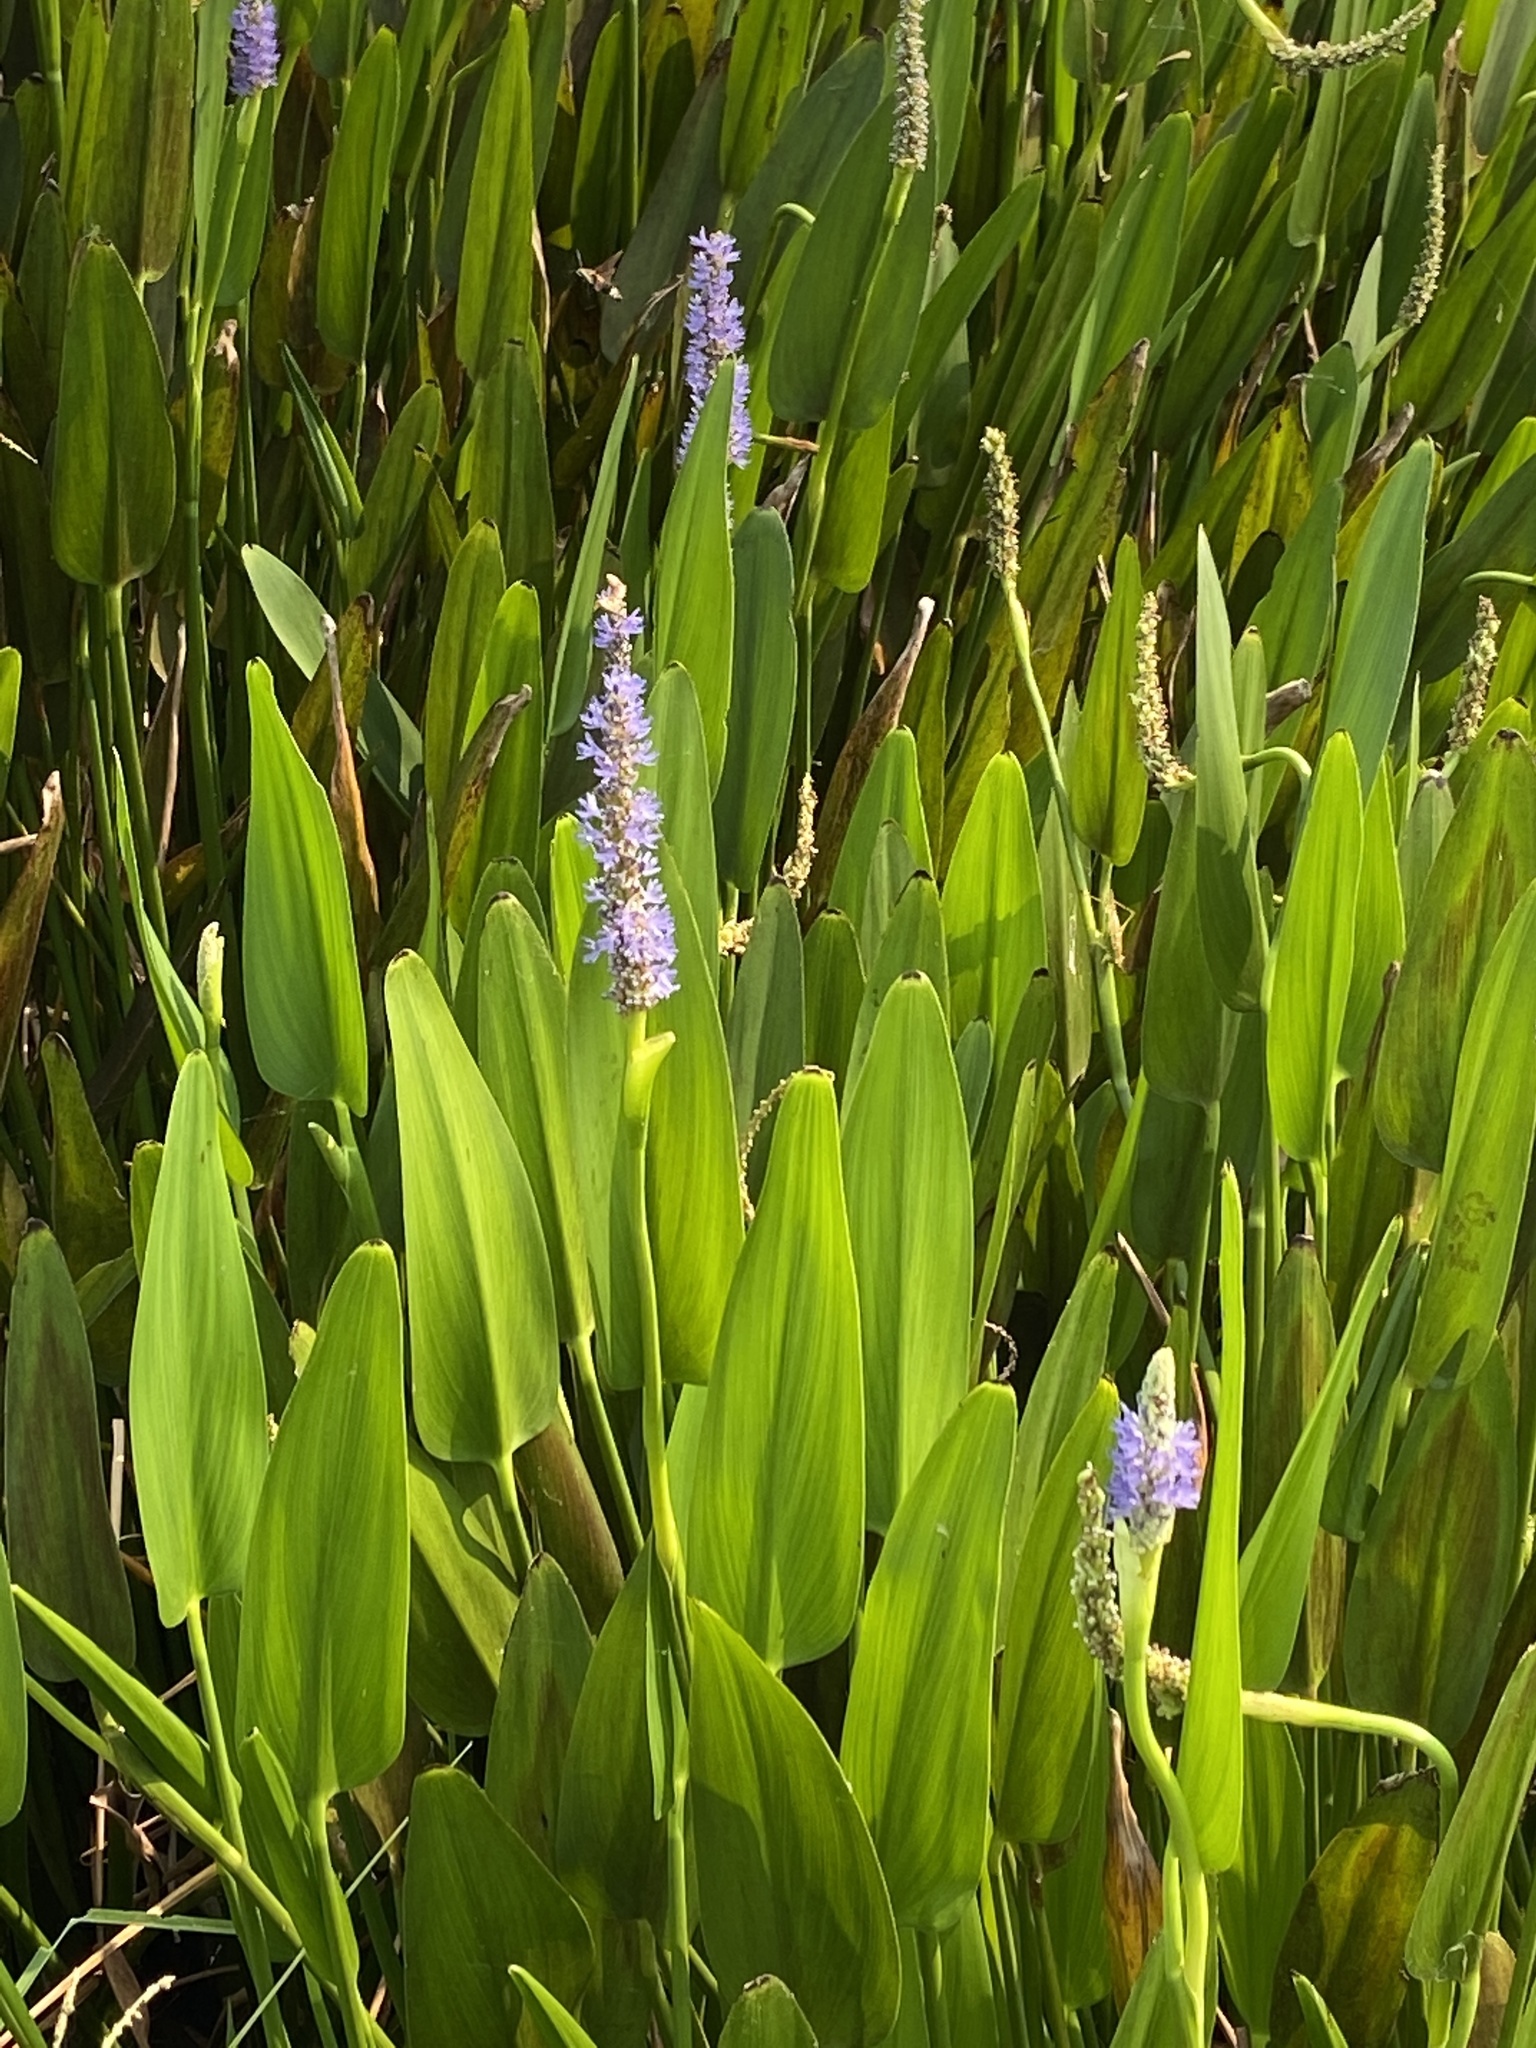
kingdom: Plantae
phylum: Tracheophyta
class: Liliopsida
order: Commelinales
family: Pontederiaceae
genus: Pontederia
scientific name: Pontederia cordata
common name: Pickerelweed
